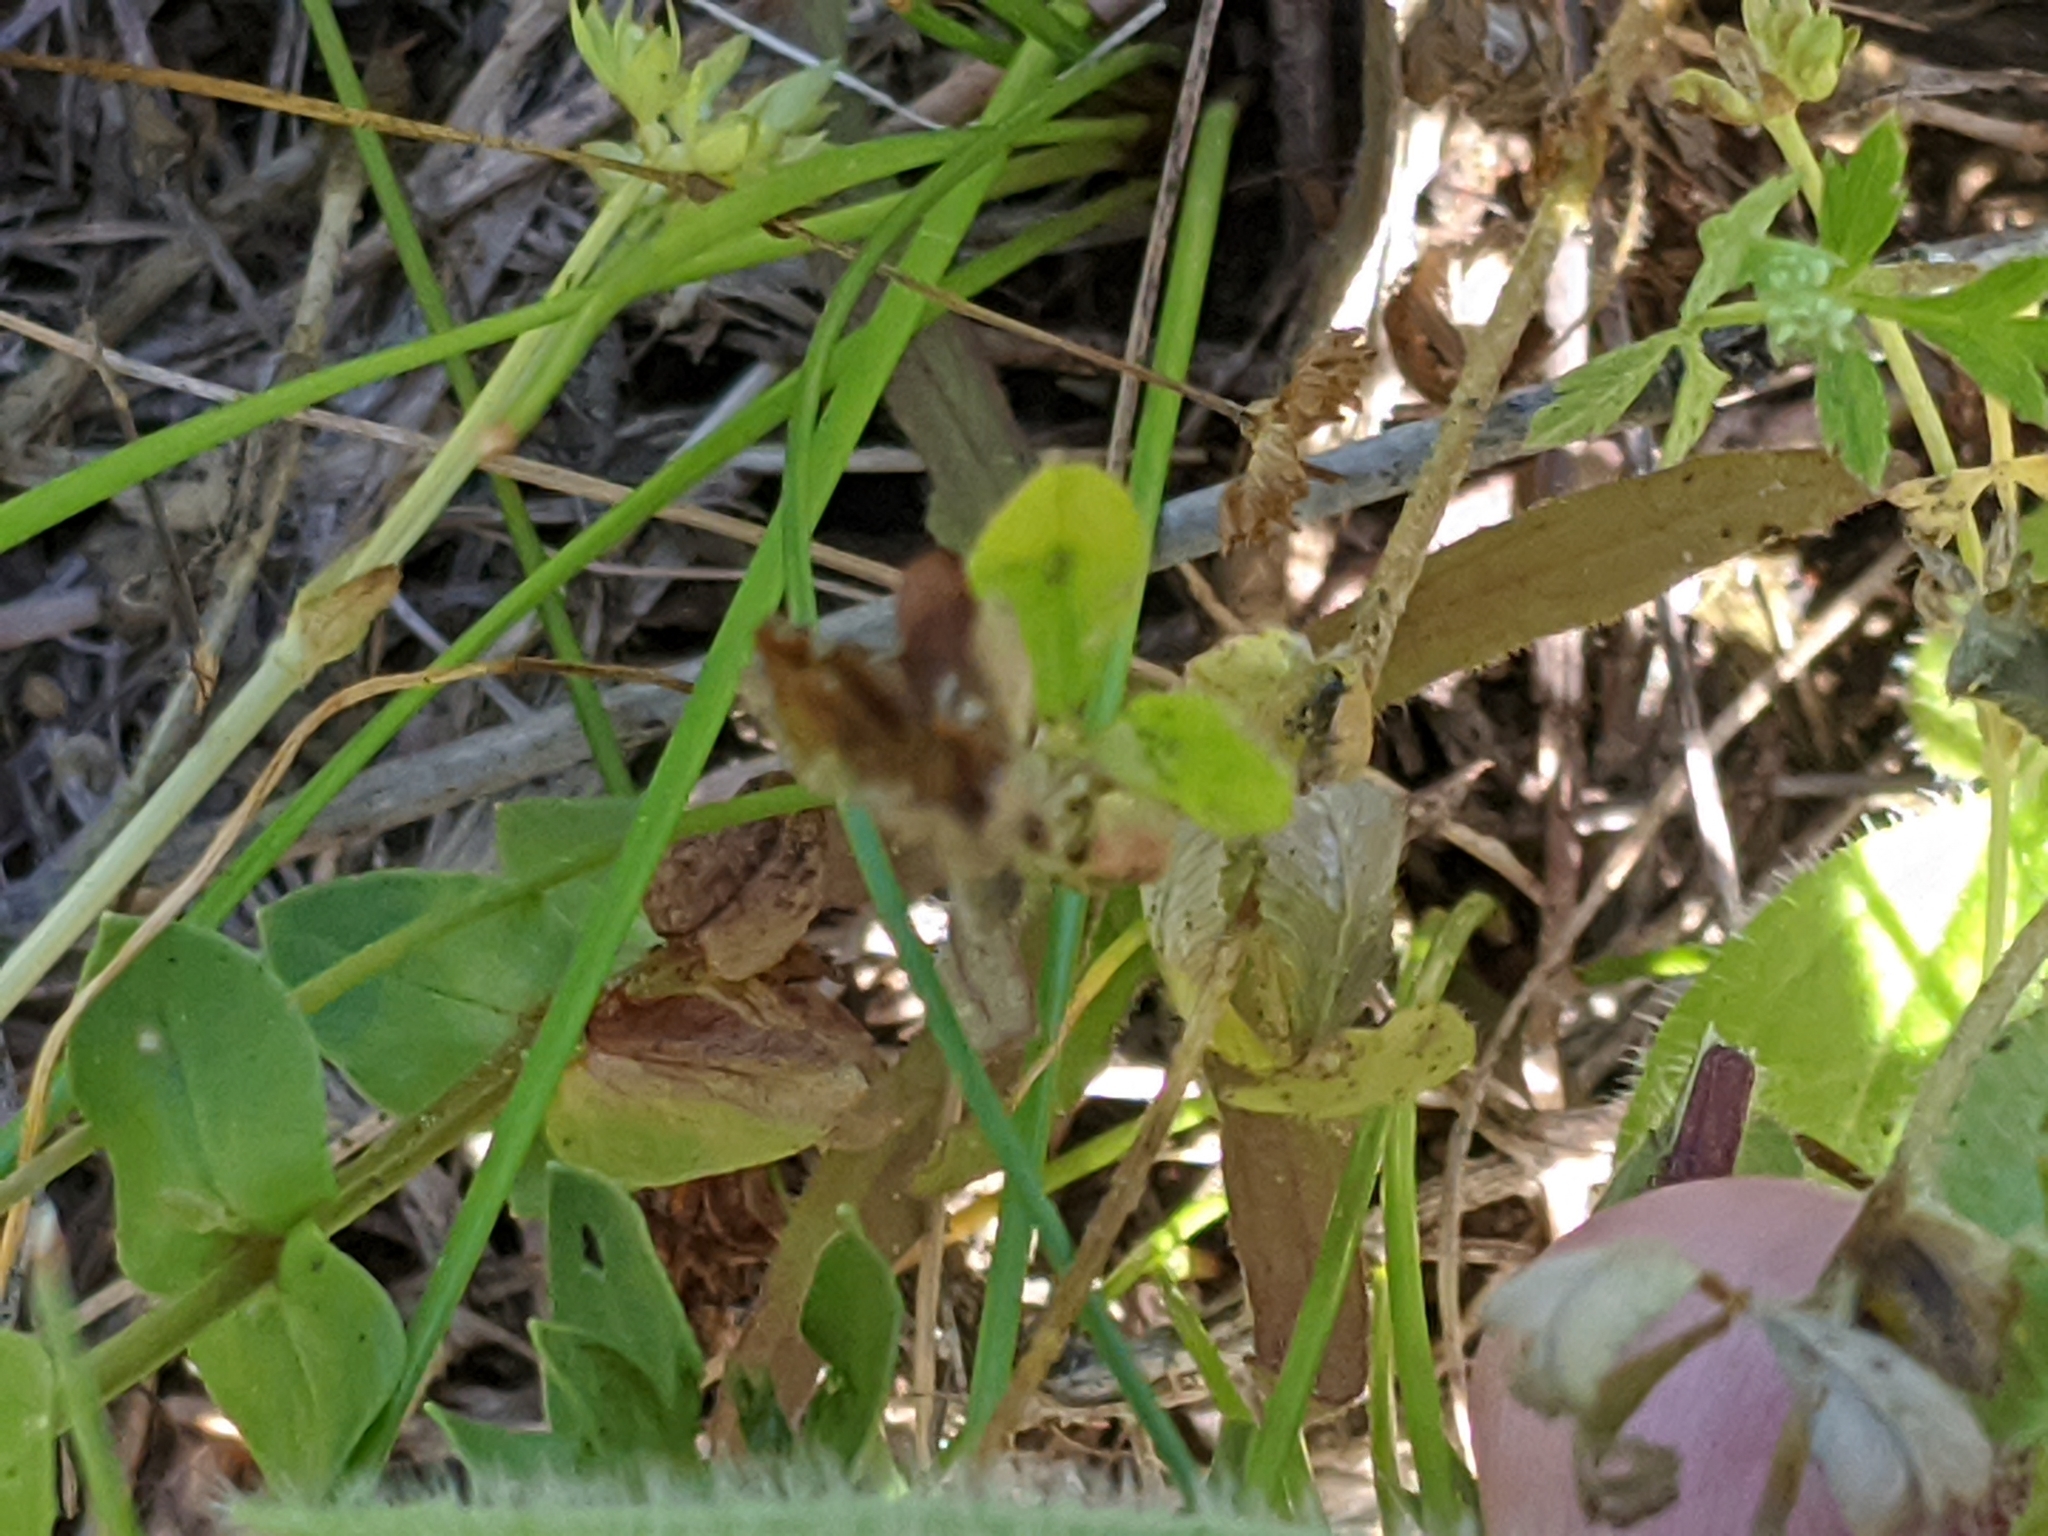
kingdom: Plantae
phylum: Tracheophyta
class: Magnoliopsida
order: Fabales
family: Fabaceae
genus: Trifolium
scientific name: Trifolium bejariense
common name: Bejar clover
